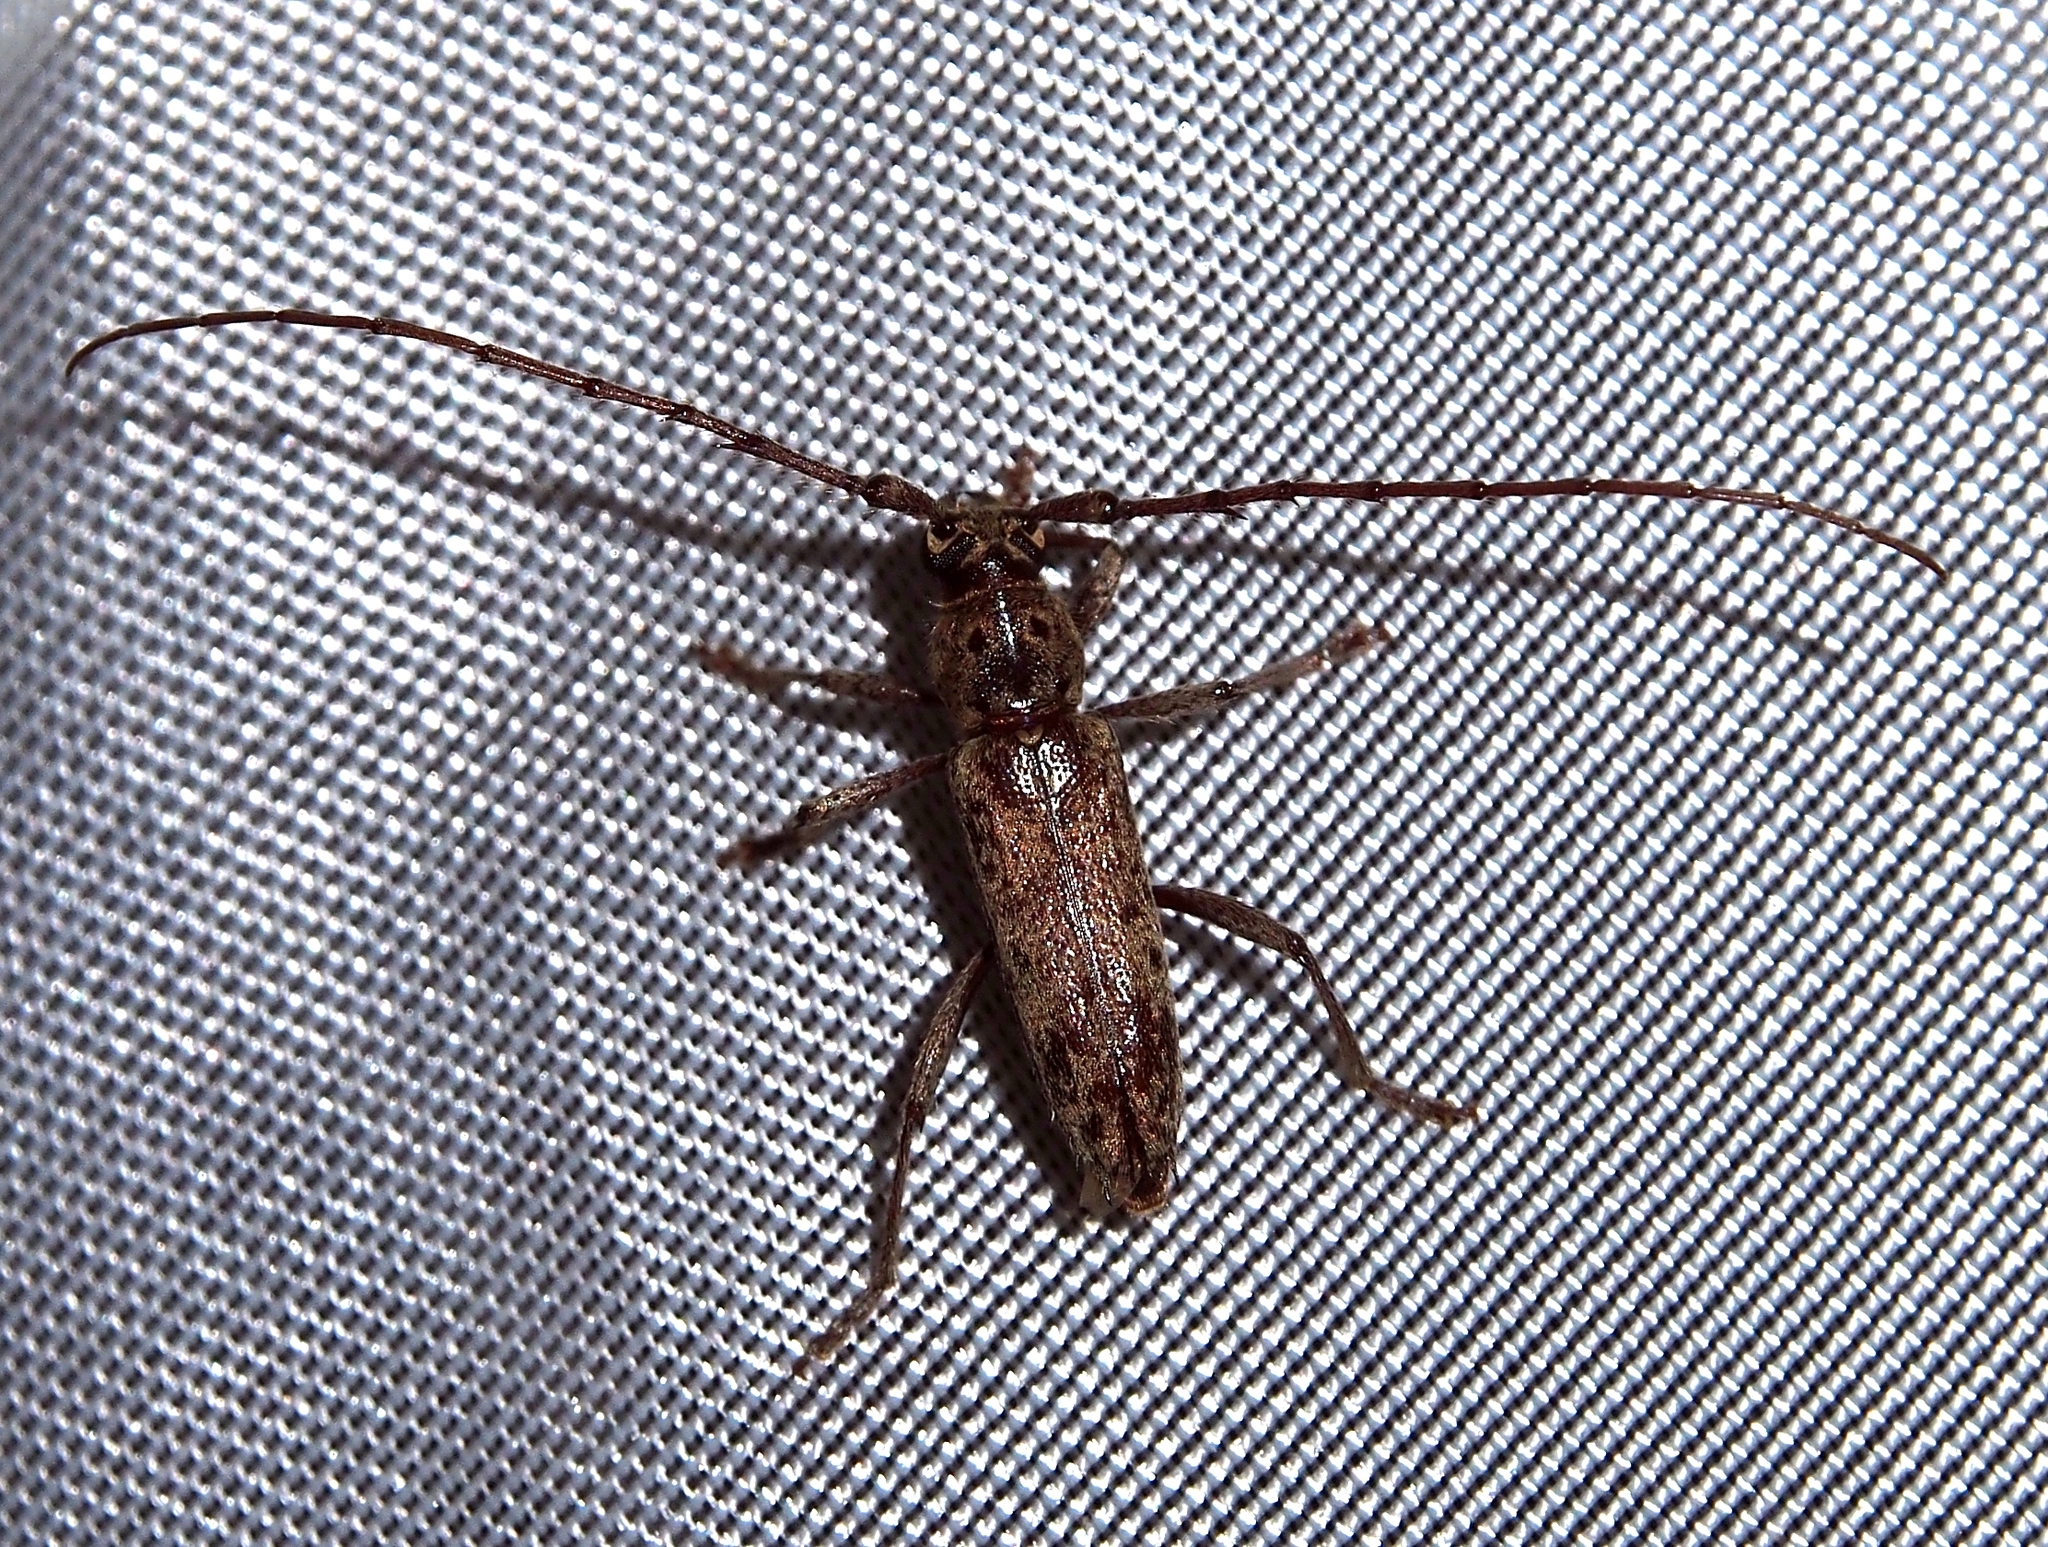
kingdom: Animalia
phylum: Arthropoda
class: Insecta
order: Coleoptera
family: Cerambycidae
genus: Elaphidion
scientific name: Elaphidion mucronatum
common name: Spined oak borer
